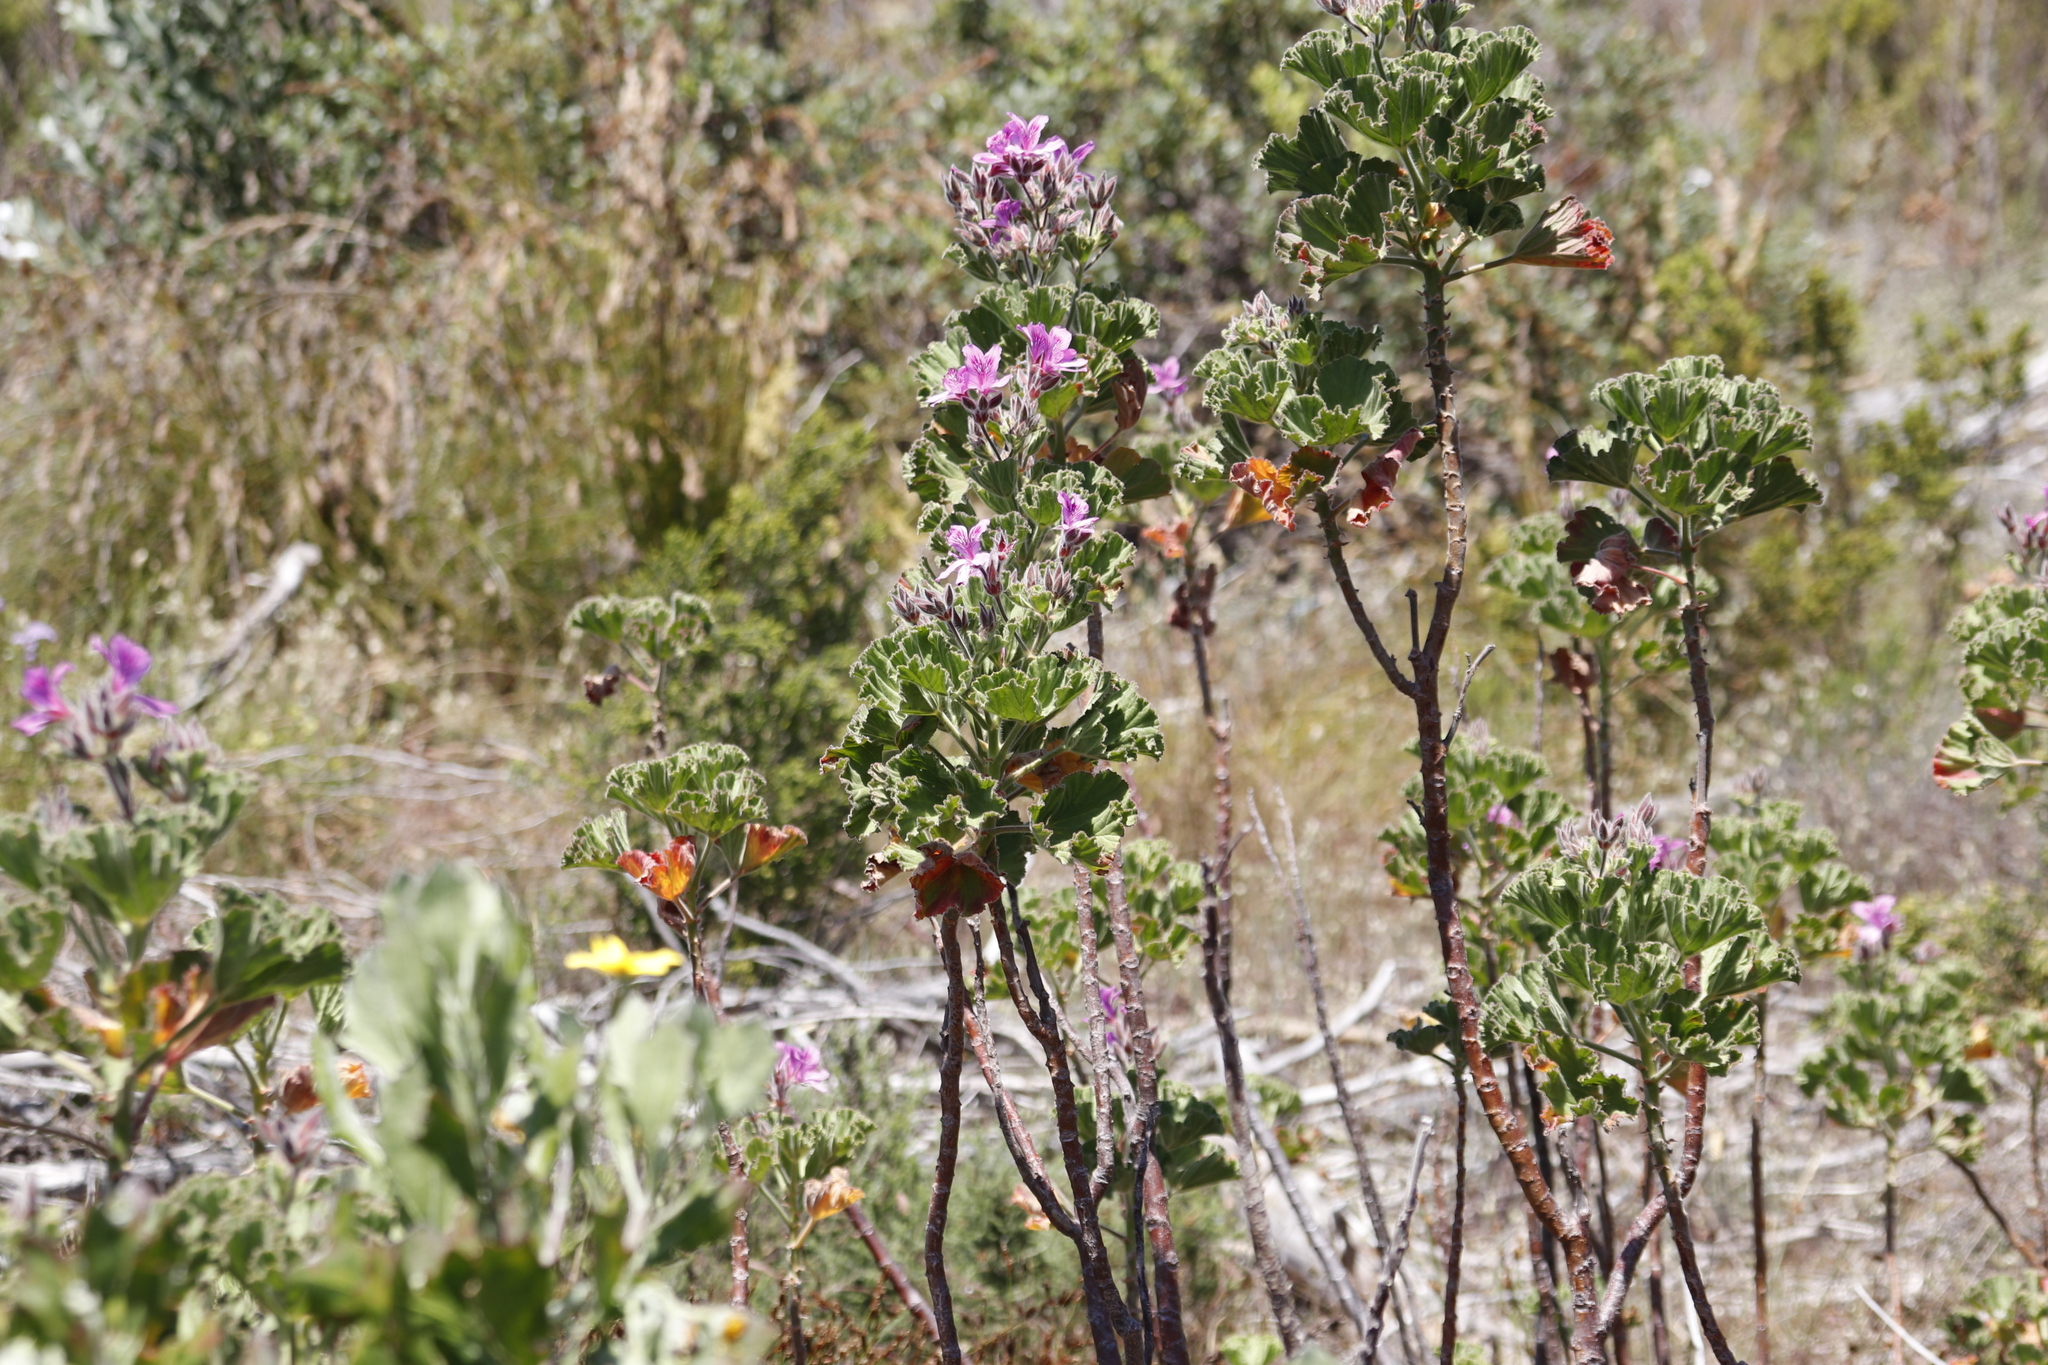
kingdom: Plantae
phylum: Tracheophyta
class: Magnoliopsida
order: Geraniales
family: Geraniaceae
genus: Pelargonium
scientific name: Pelargonium cucullatum
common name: Tree pelargonium
